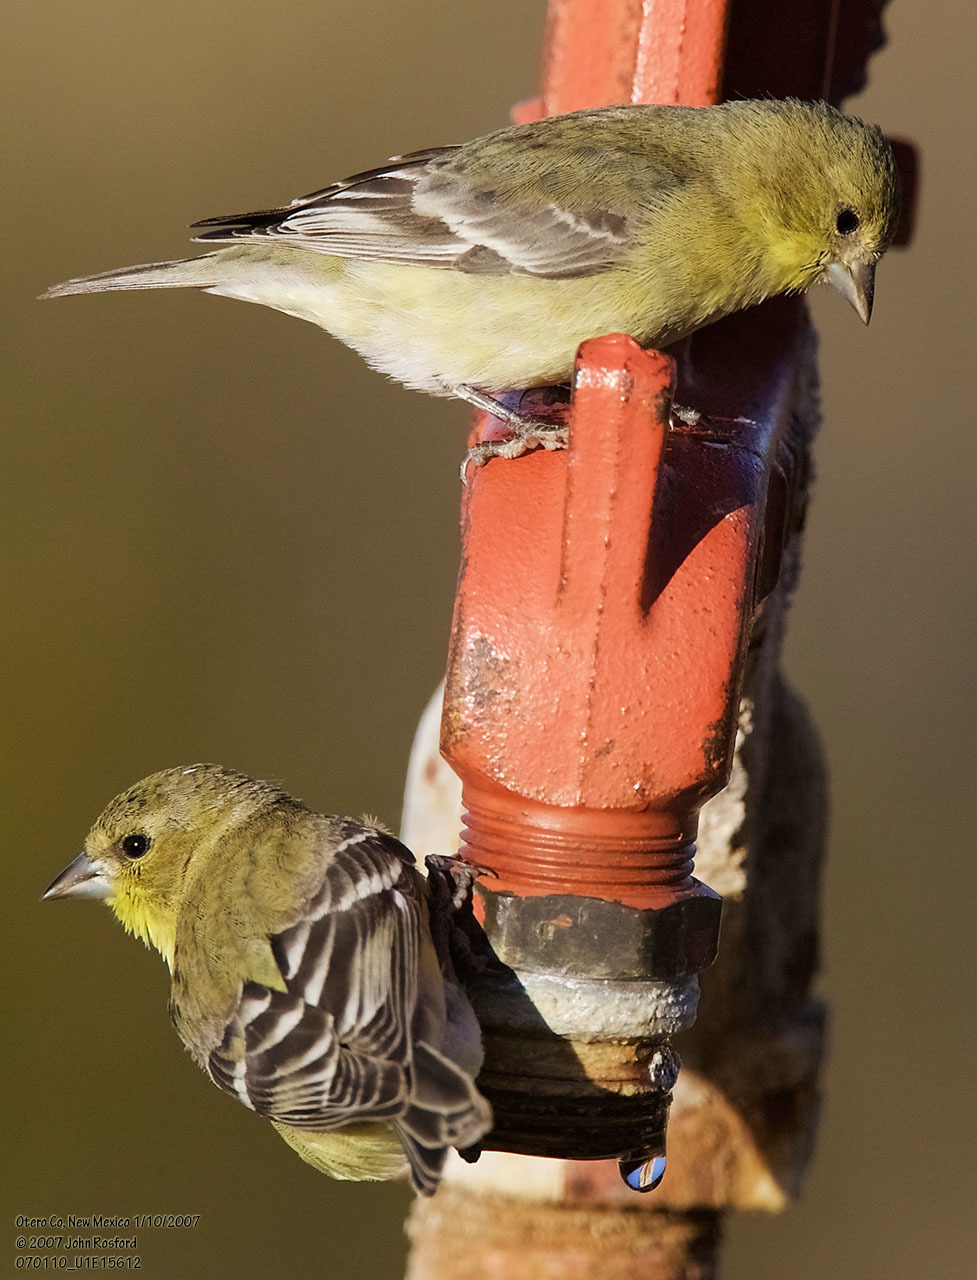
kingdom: Animalia
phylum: Chordata
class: Aves
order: Passeriformes
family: Fringillidae
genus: Spinus
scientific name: Spinus psaltria
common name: Lesser goldfinch
